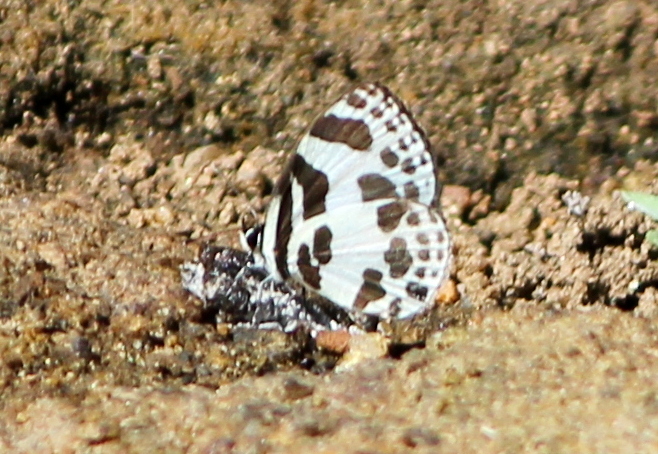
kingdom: Animalia
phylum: Arthropoda
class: Insecta
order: Lepidoptera
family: Lycaenidae
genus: Discolampa
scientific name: Discolampa ethion
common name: Banded blue pierrot
